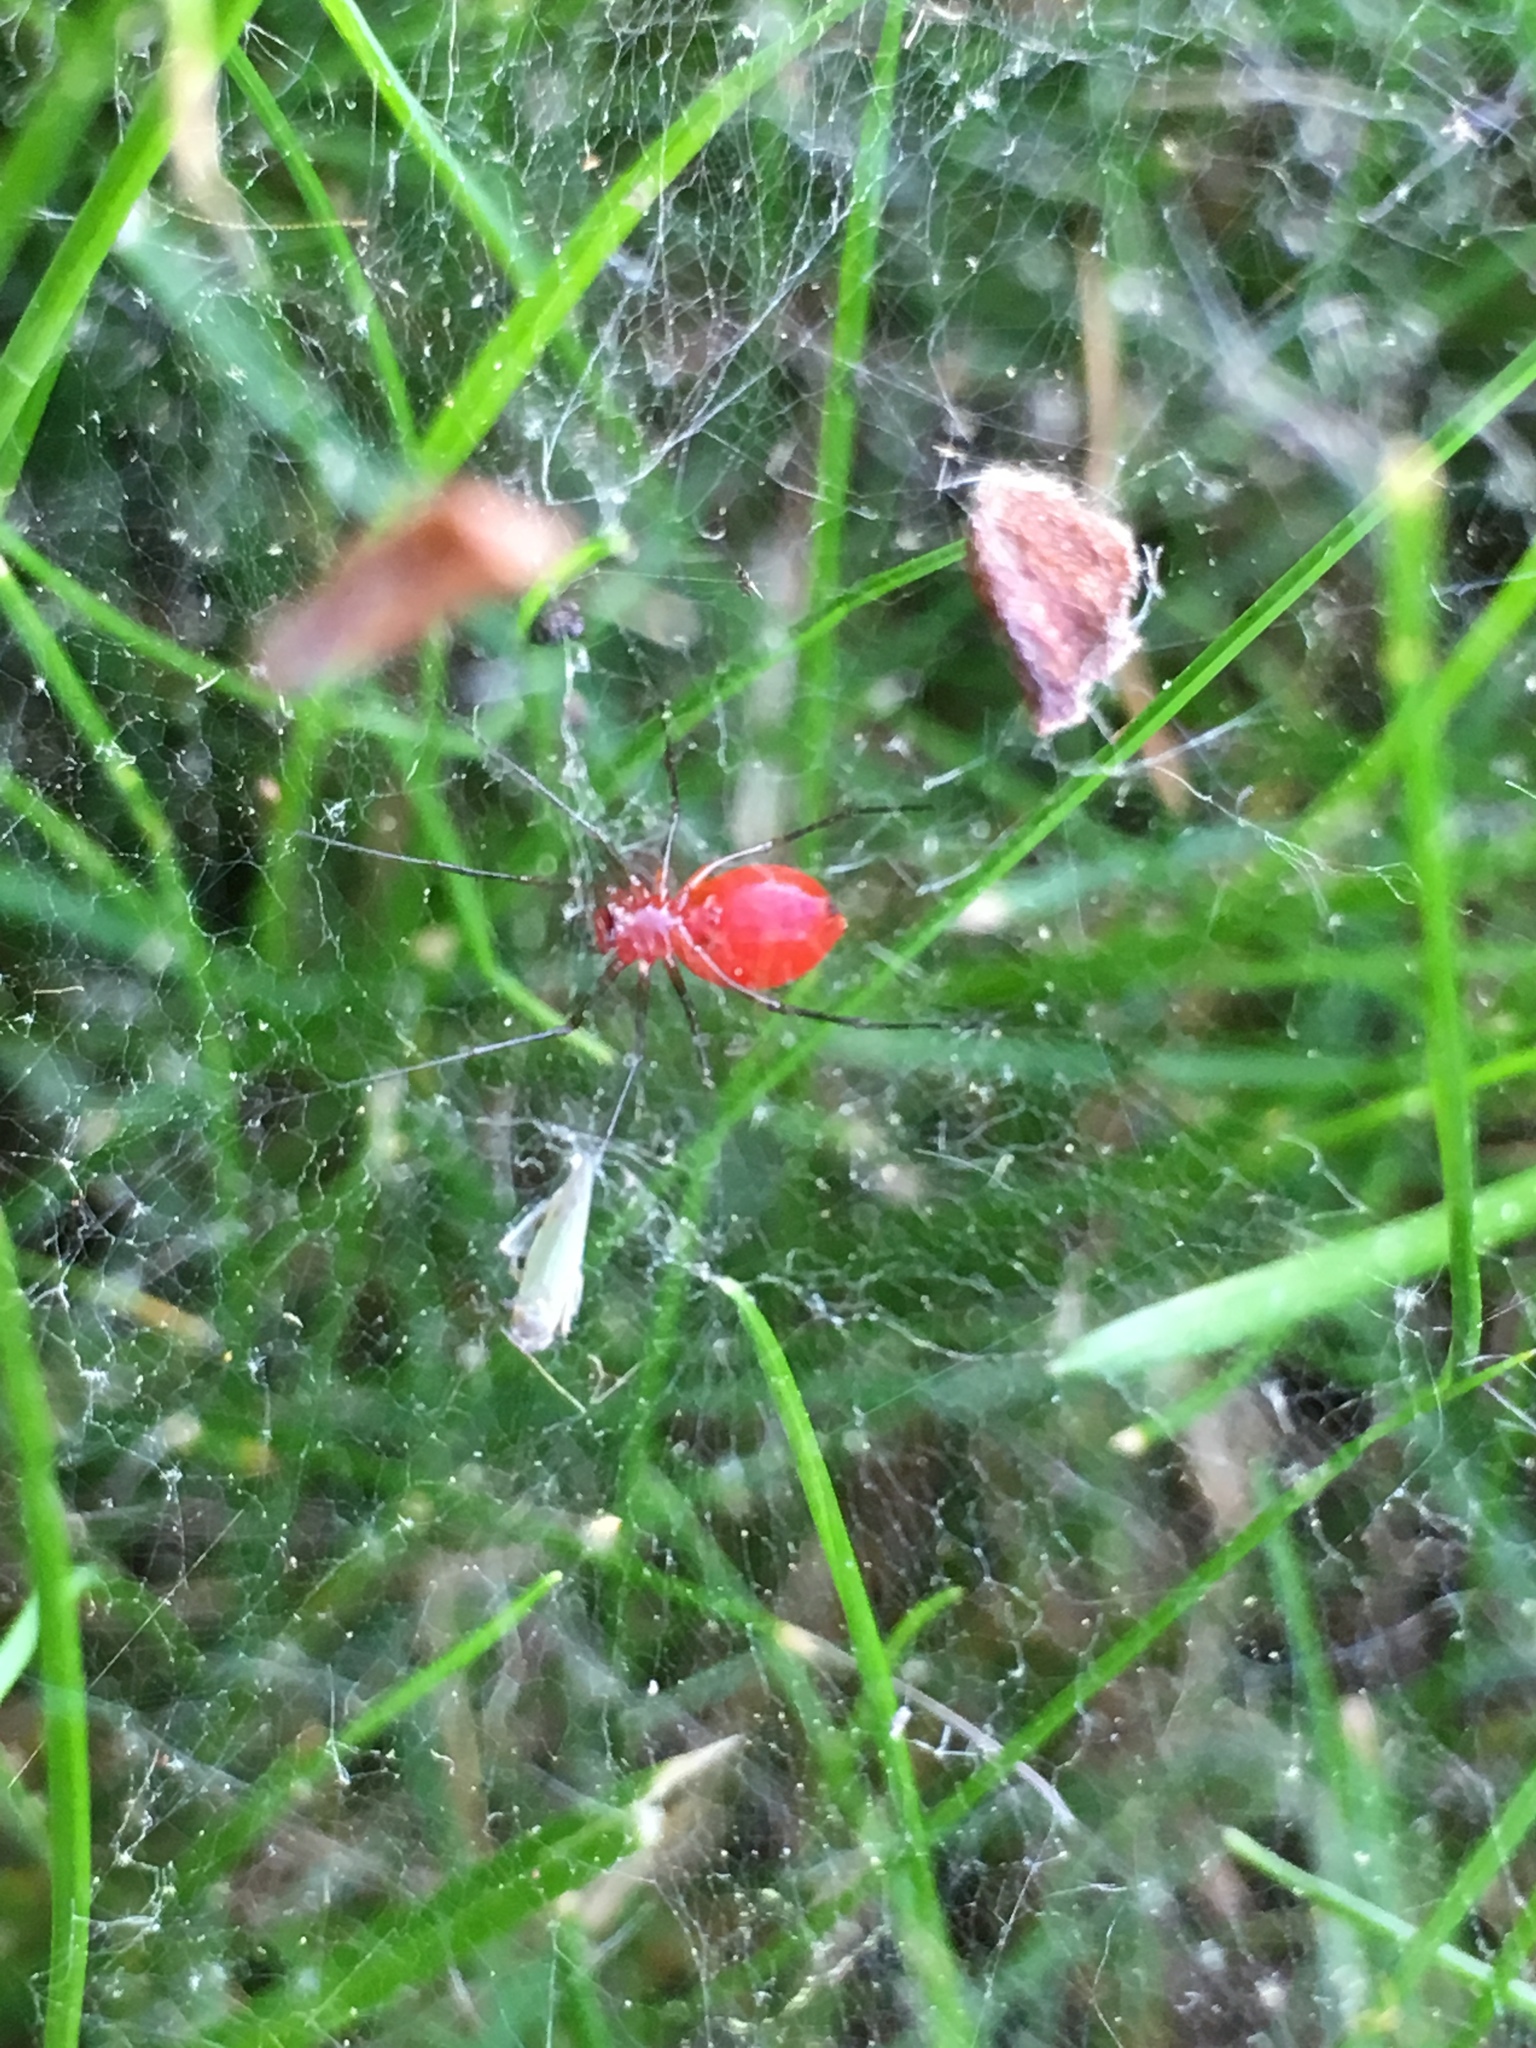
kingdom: Animalia
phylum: Arthropoda
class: Arachnida
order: Araneae
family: Linyphiidae
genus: Florinda
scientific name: Florinda coccinea
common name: Black-tailed red sheetweaver
